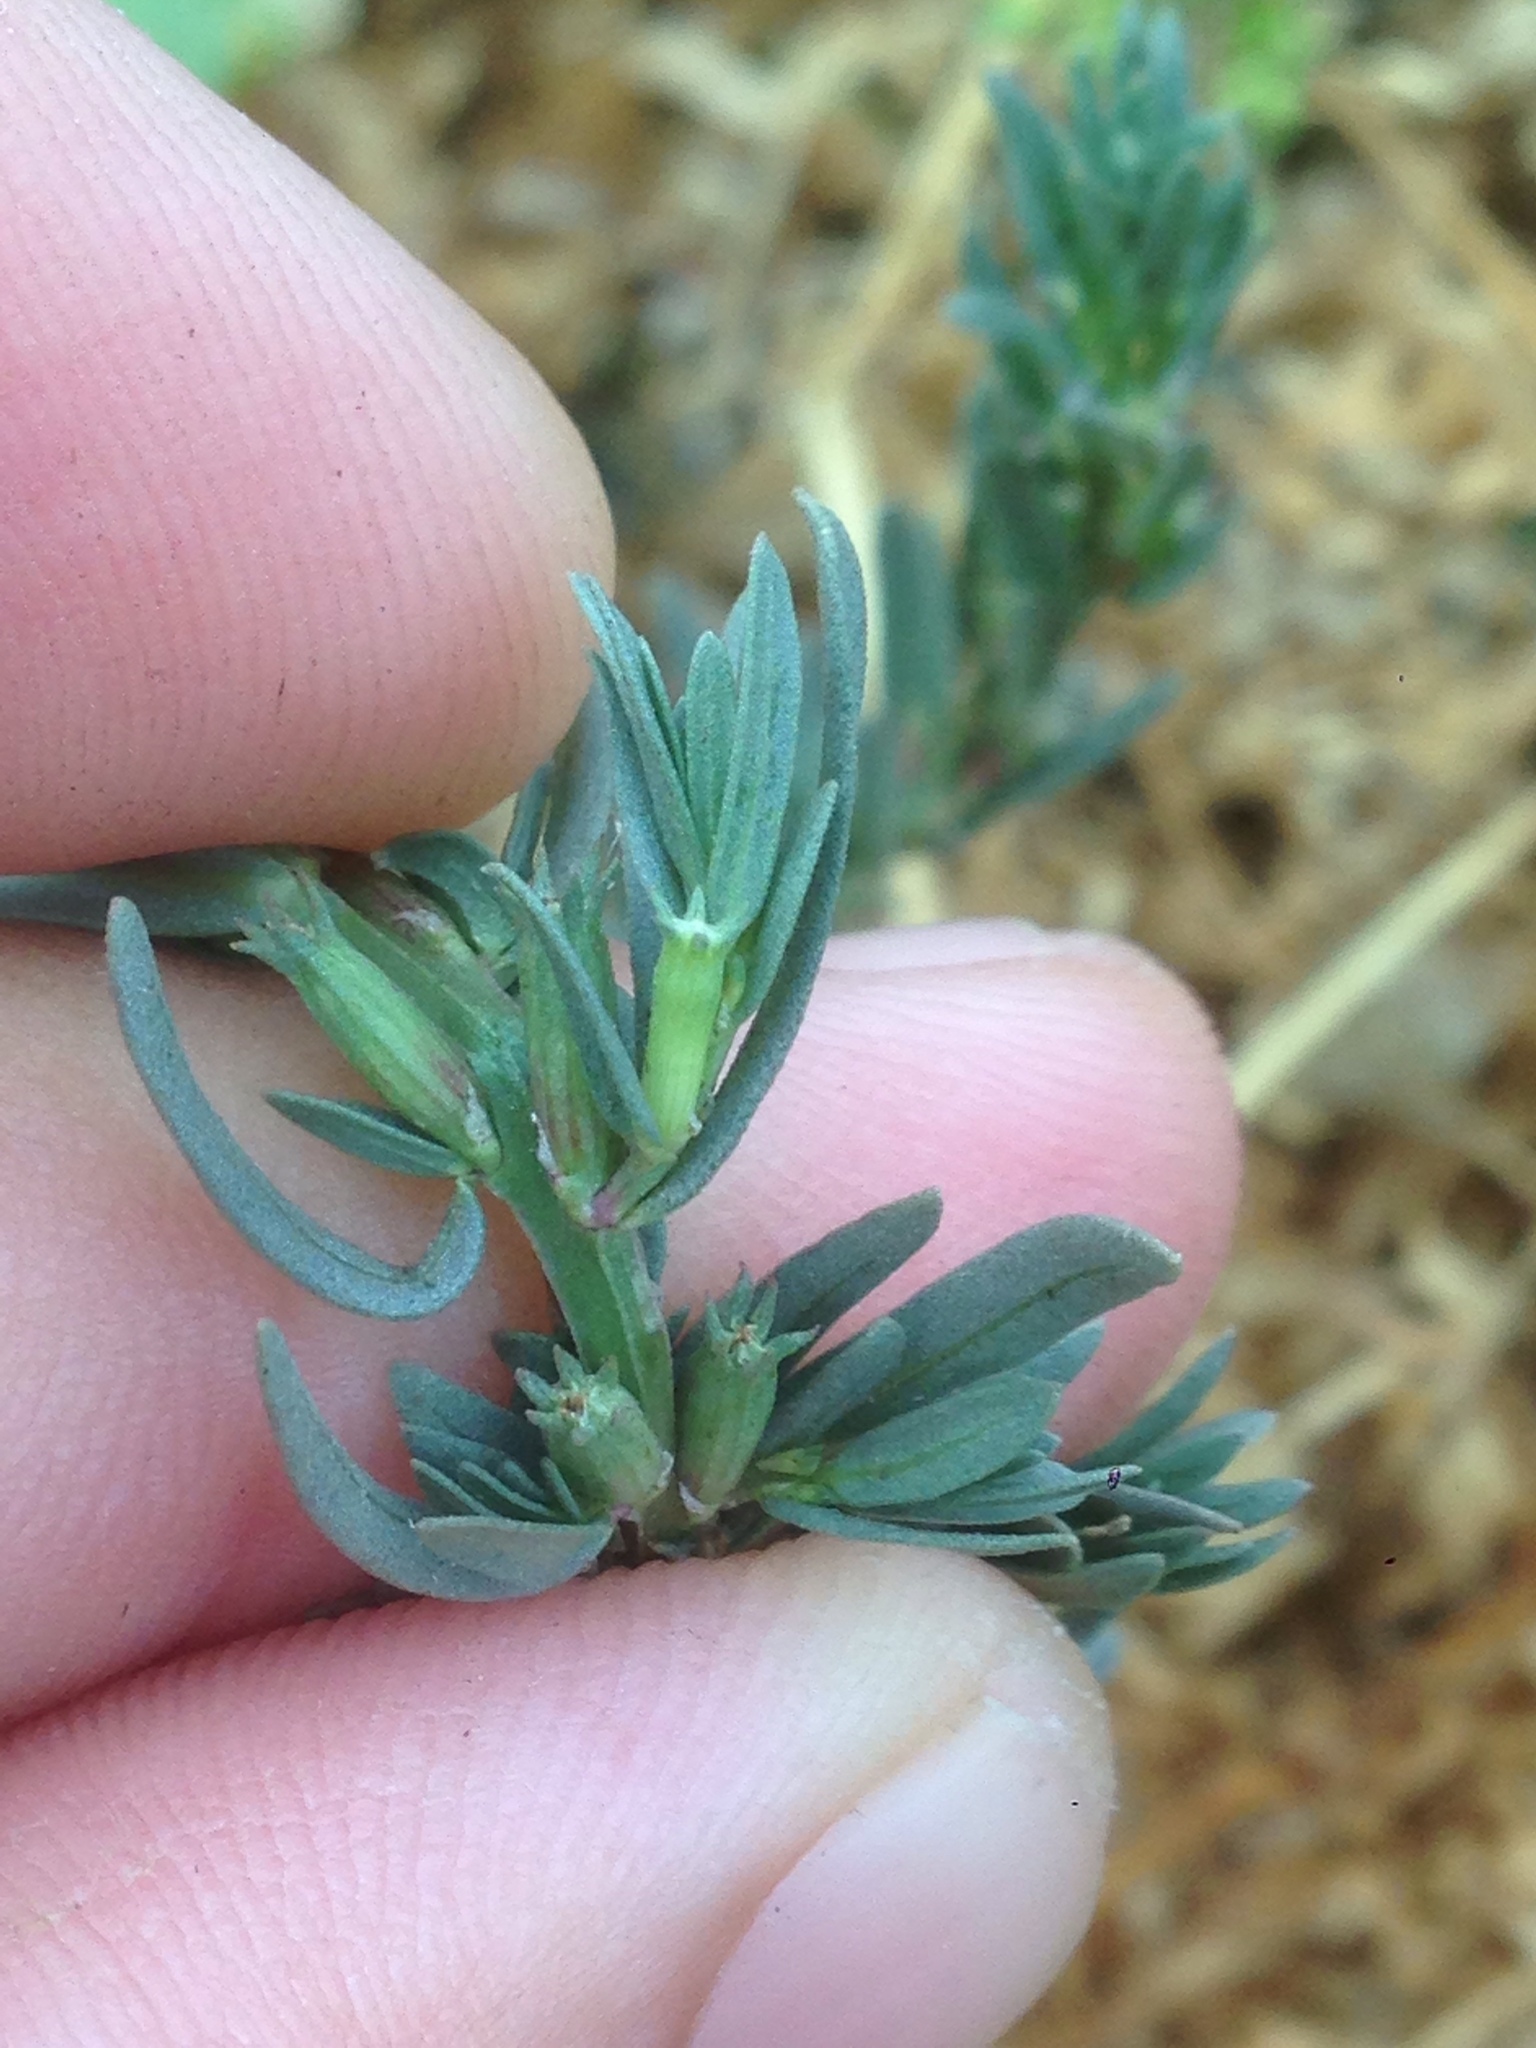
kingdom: Plantae
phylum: Tracheophyta
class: Magnoliopsida
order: Myrtales
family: Lythraceae
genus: Lythrum
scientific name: Lythrum hyssopifolia
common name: Grass-poly
